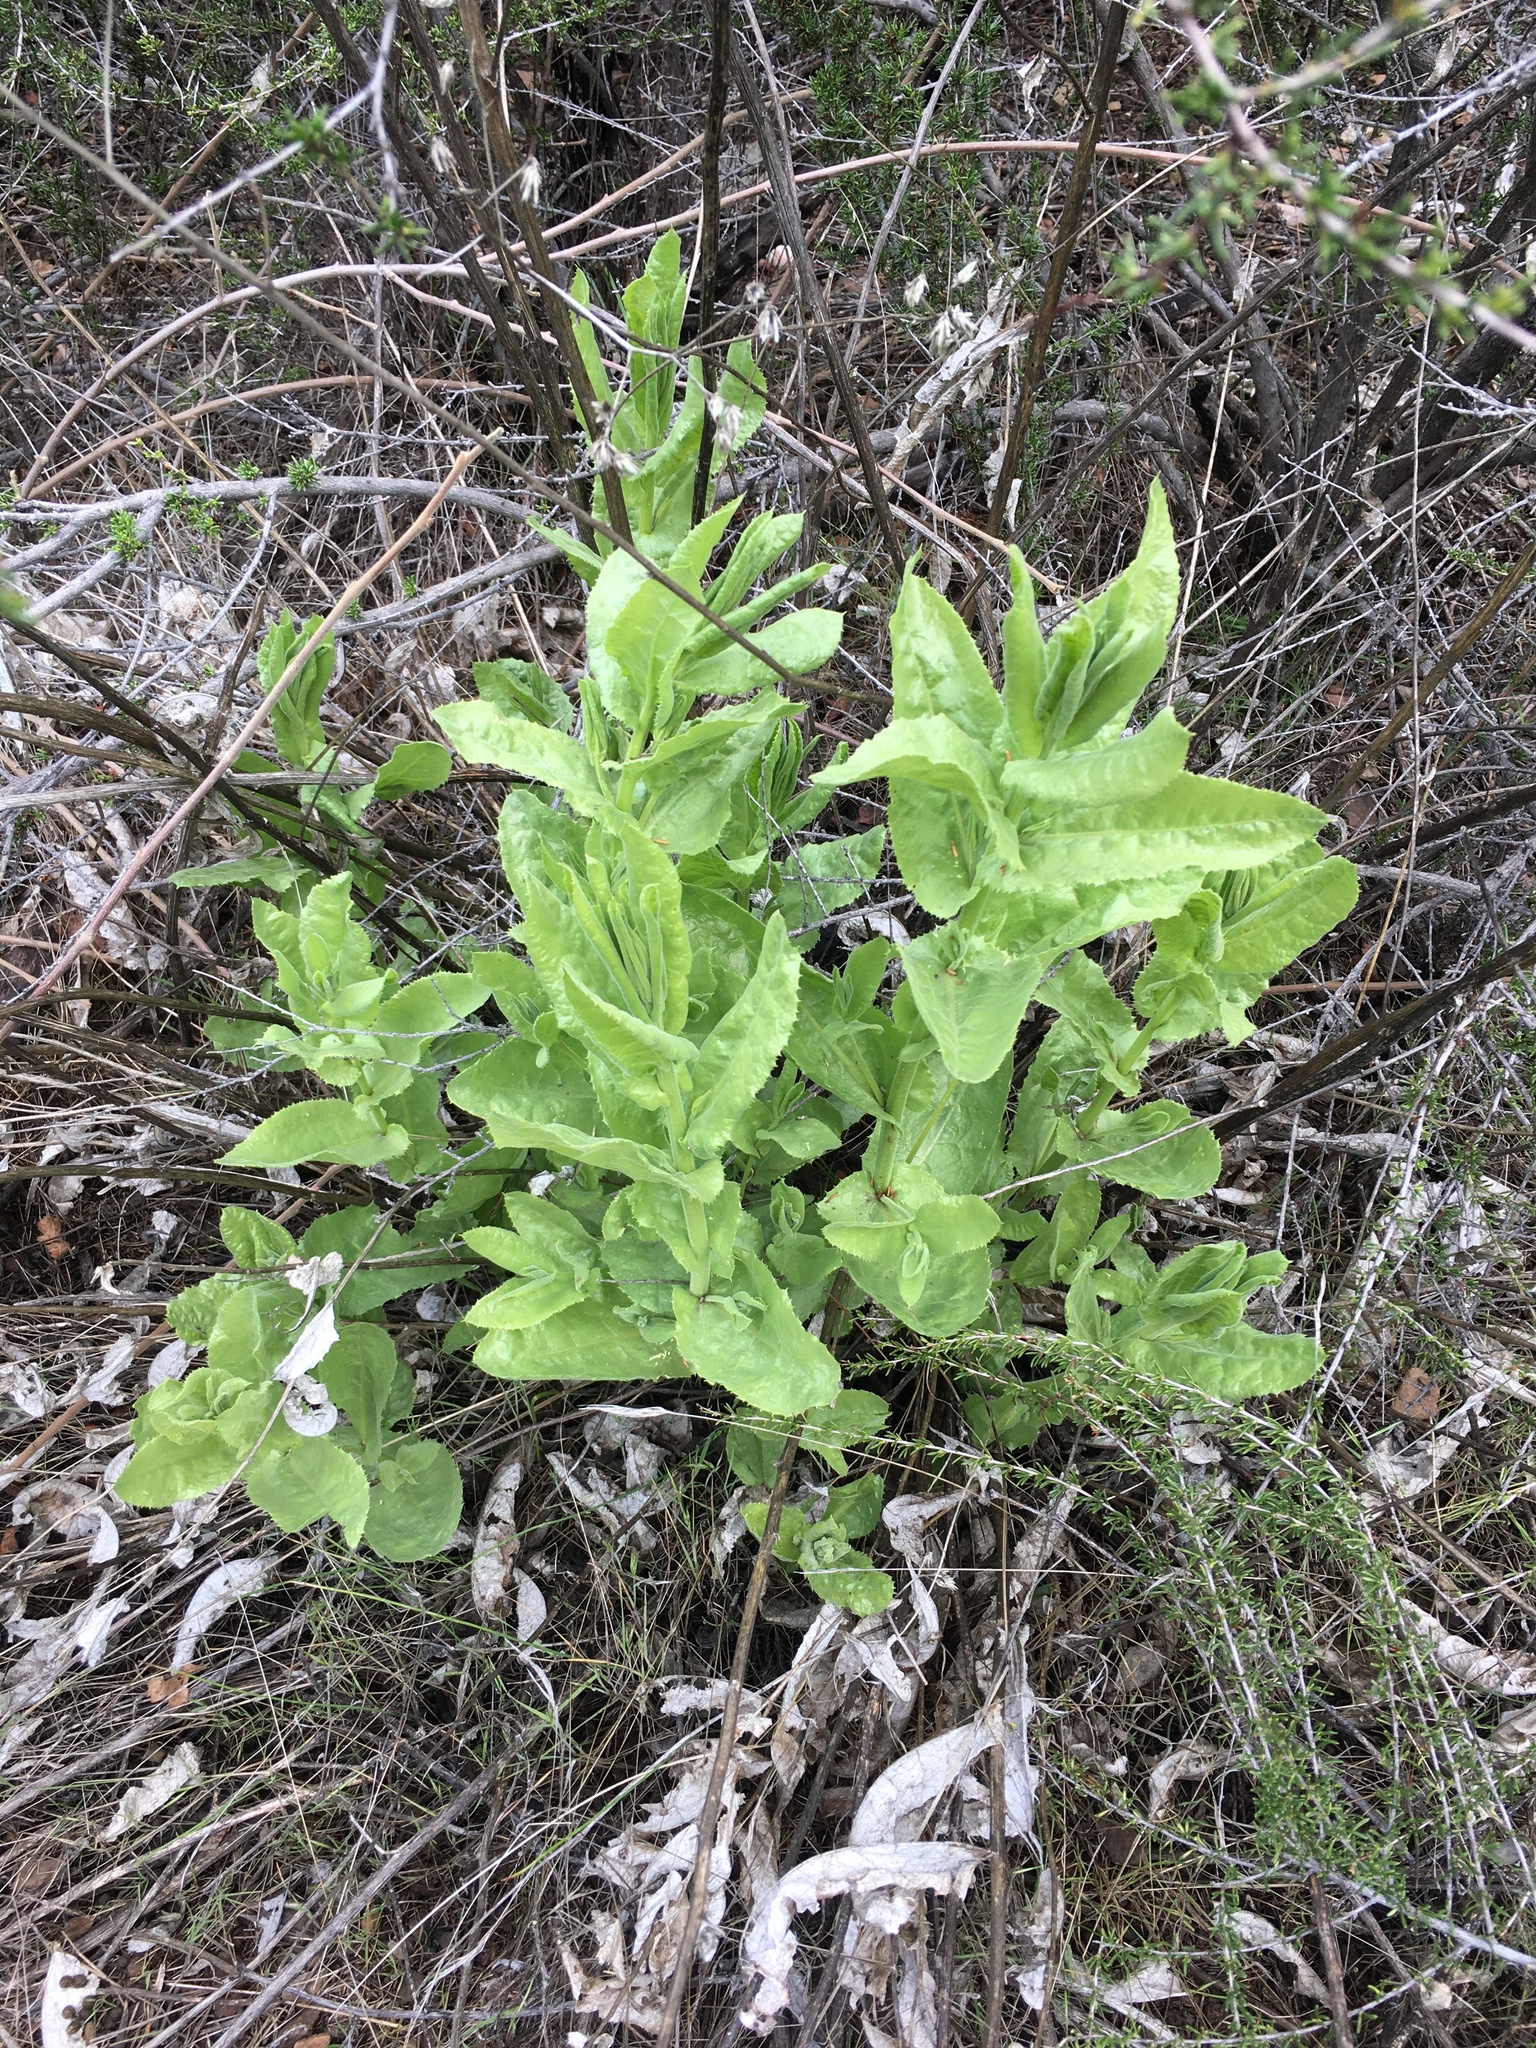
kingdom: Plantae
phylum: Tracheophyta
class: Magnoliopsida
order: Asterales
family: Asteraceae
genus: Acourtia
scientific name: Acourtia microcephala
